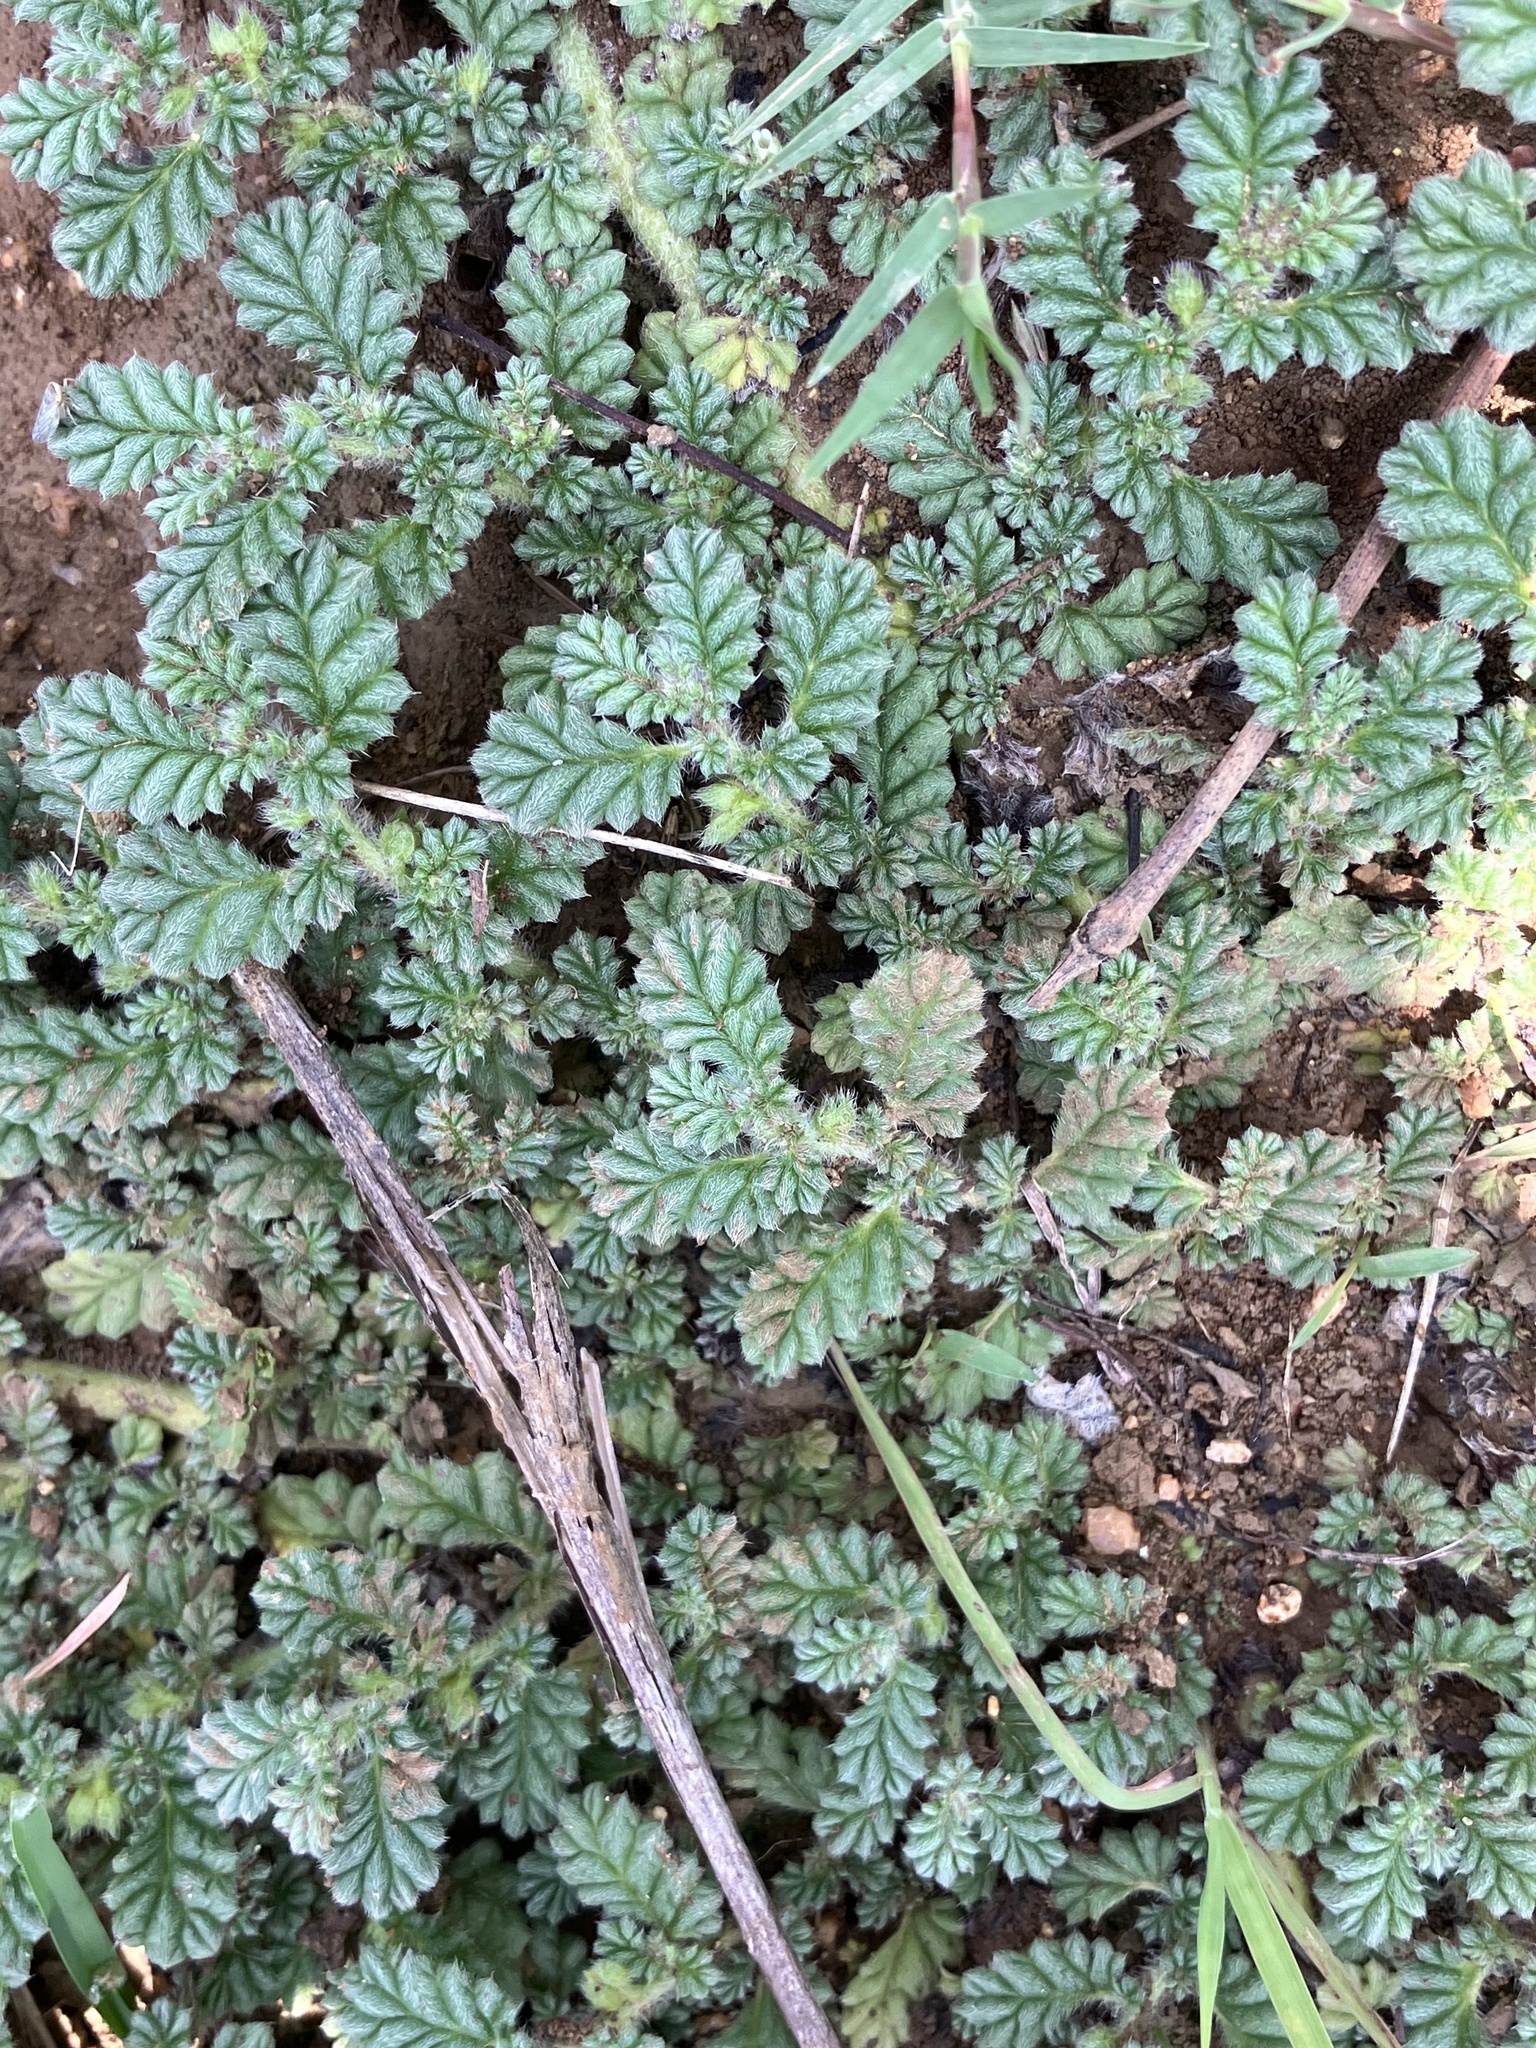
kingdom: Plantae
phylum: Tracheophyta
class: Magnoliopsida
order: Boraginales
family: Coldeniaceae
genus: Coldenia
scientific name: Coldenia procumbens
